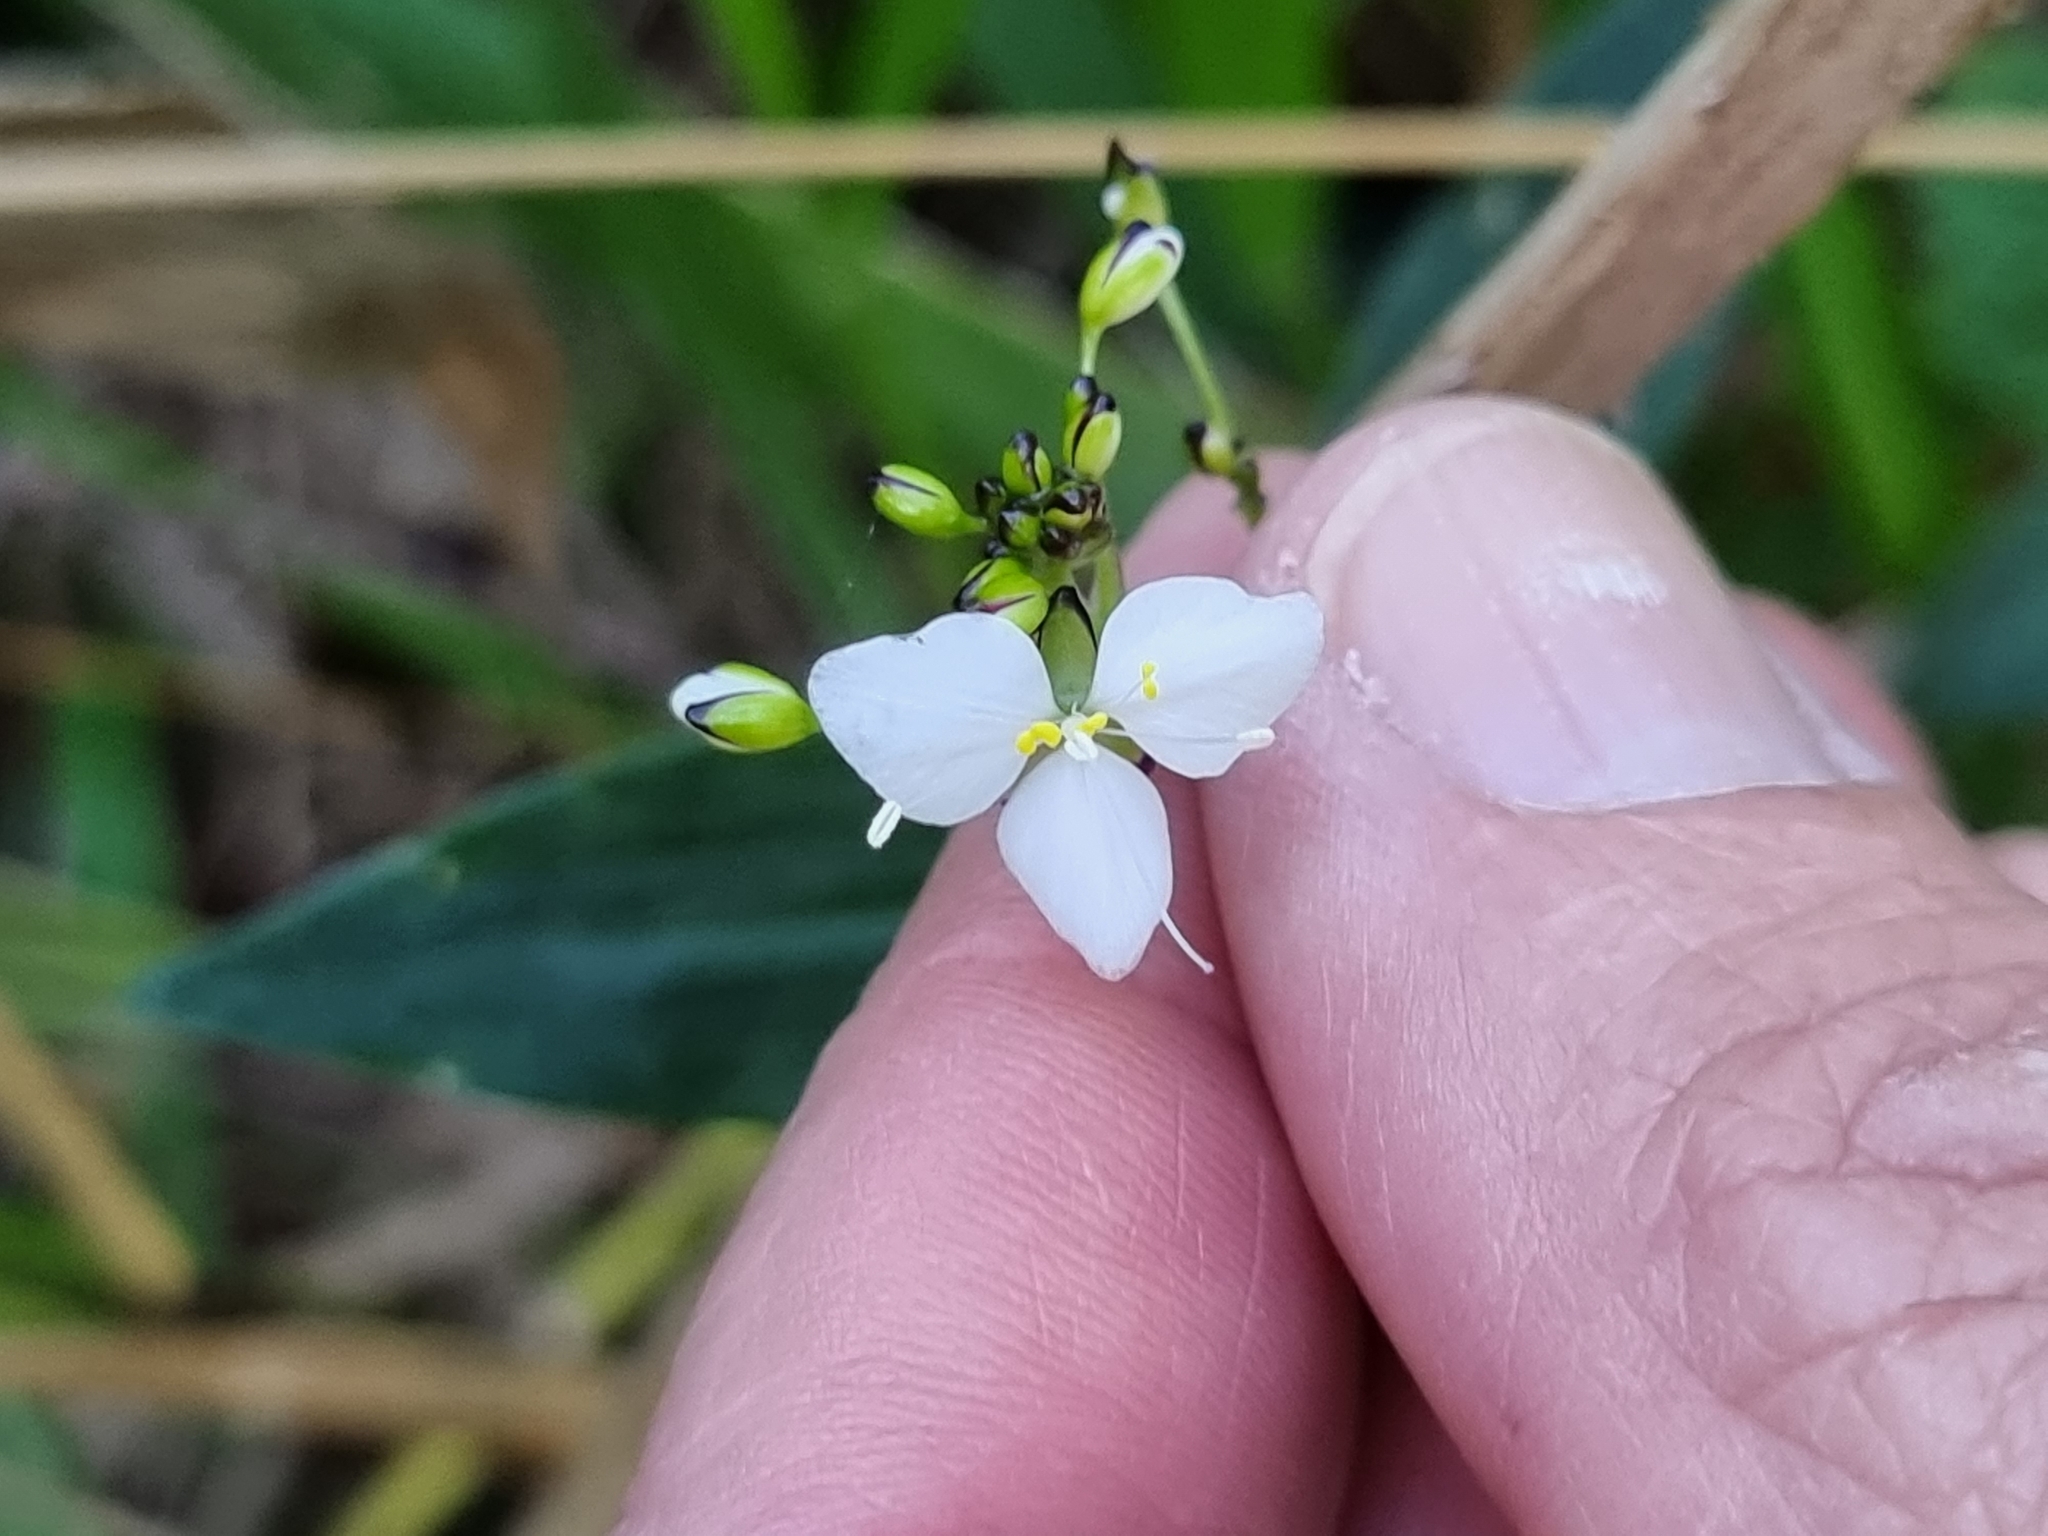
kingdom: Plantae
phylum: Tracheophyta
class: Liliopsida
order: Commelinales
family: Commelinaceae
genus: Aneilema
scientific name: Aneilema acuminatum
